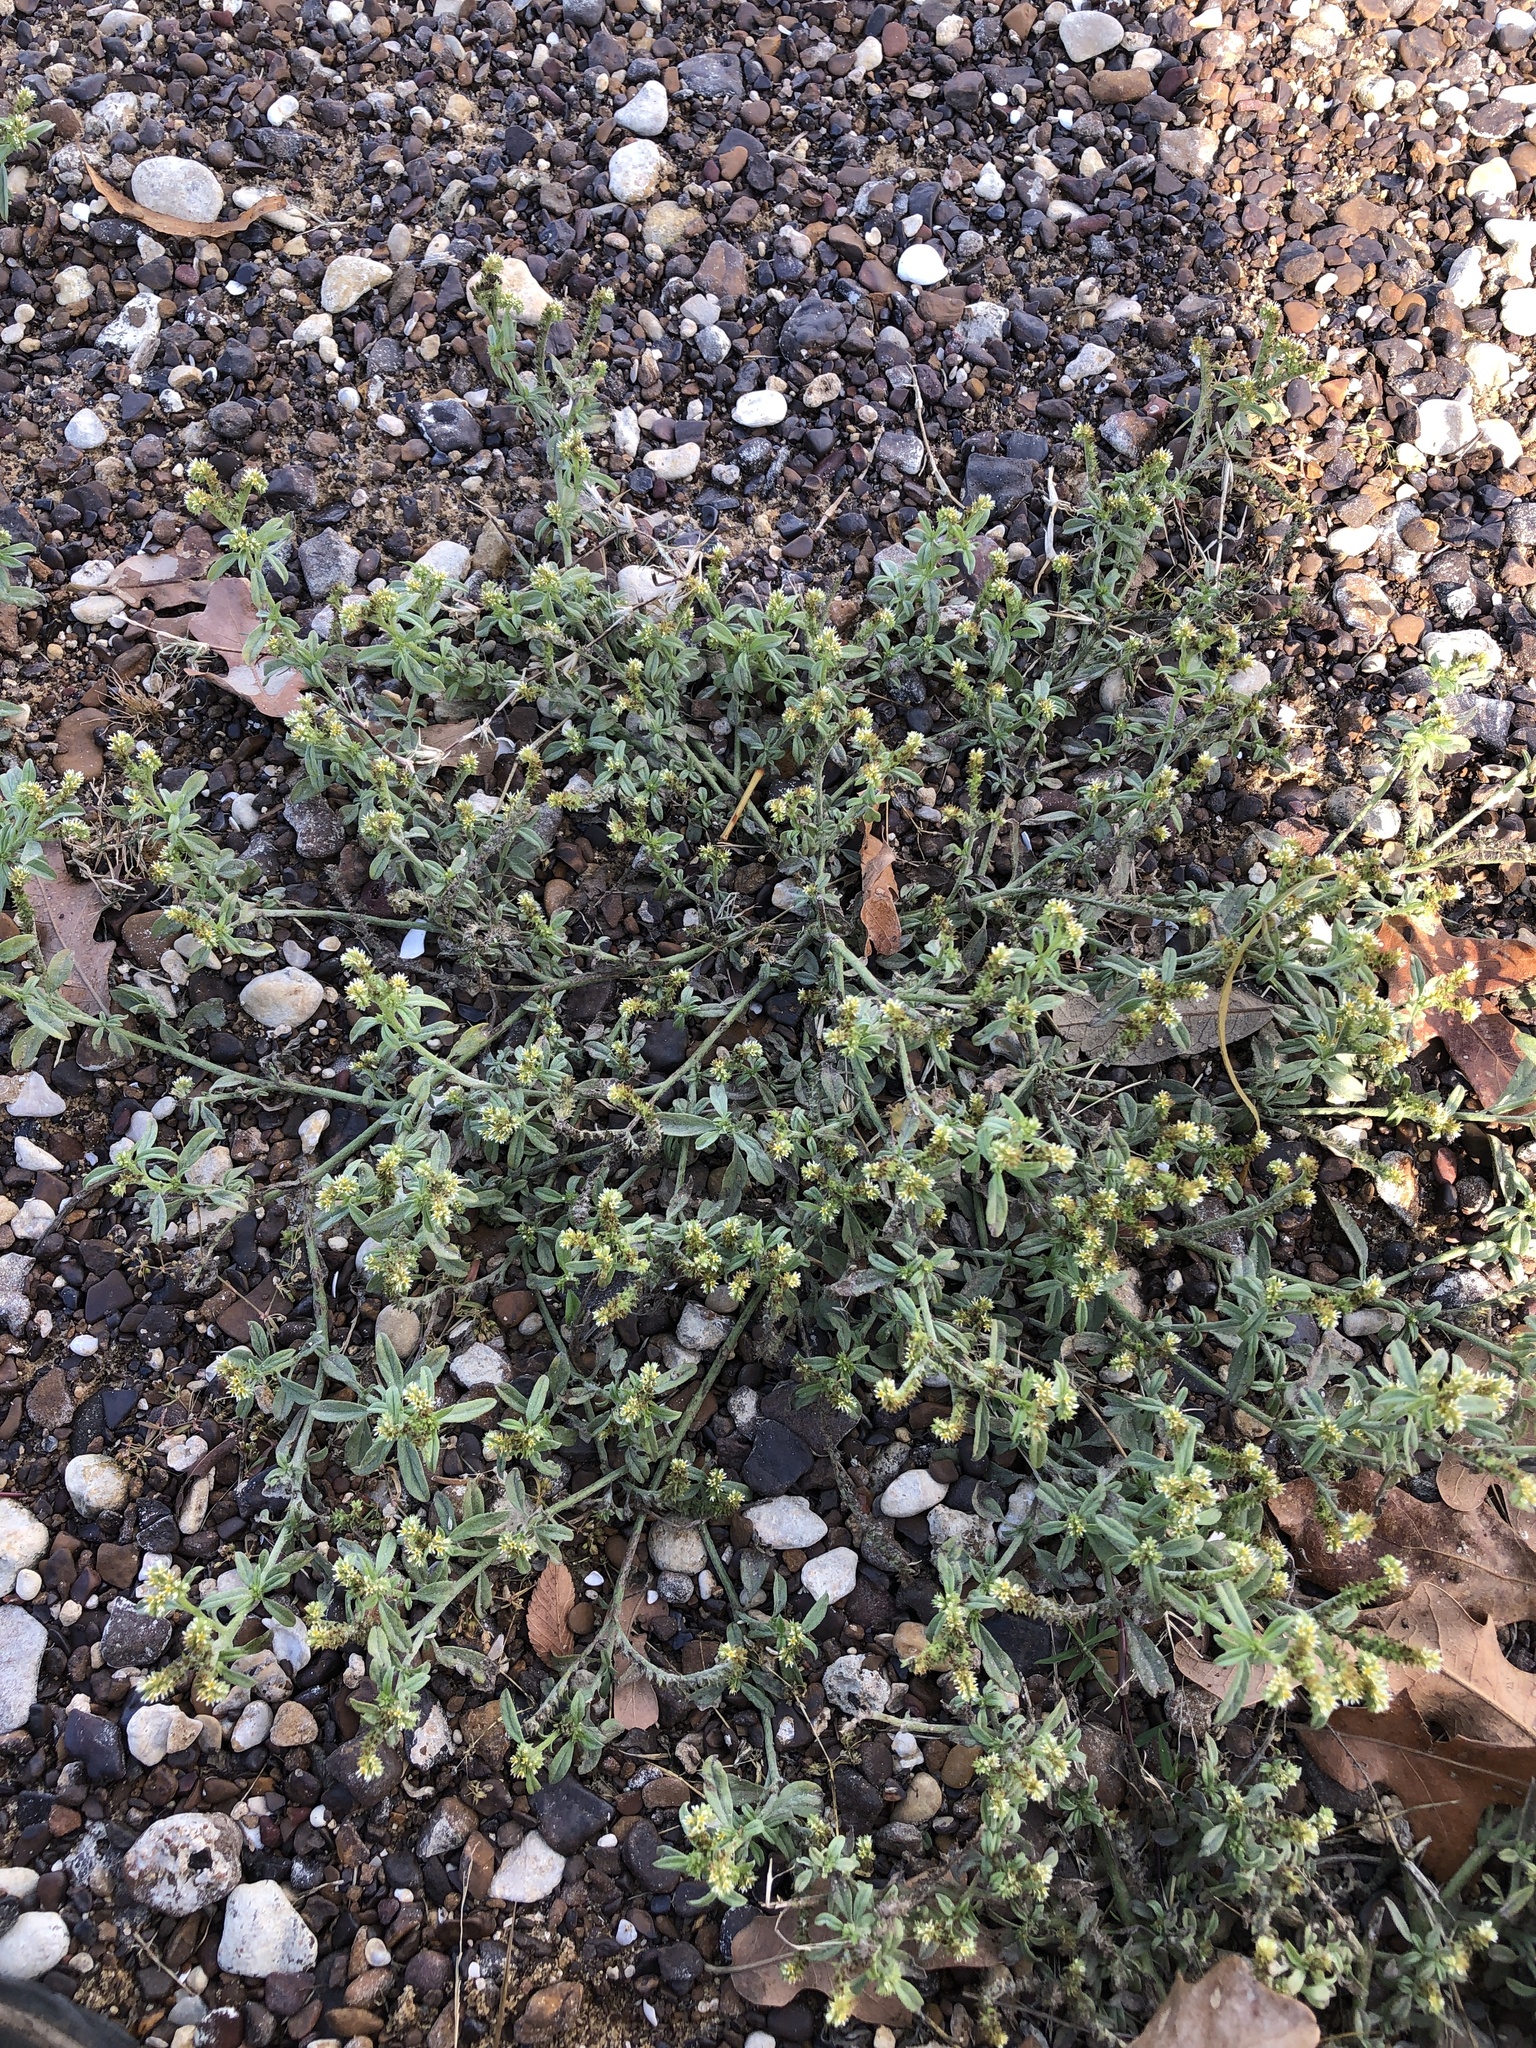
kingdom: Plantae
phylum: Tracheophyta
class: Magnoliopsida
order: Boraginales
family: Heliotropiaceae
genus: Euploca
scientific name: Euploca procumbens
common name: Fourspike heliotrope
